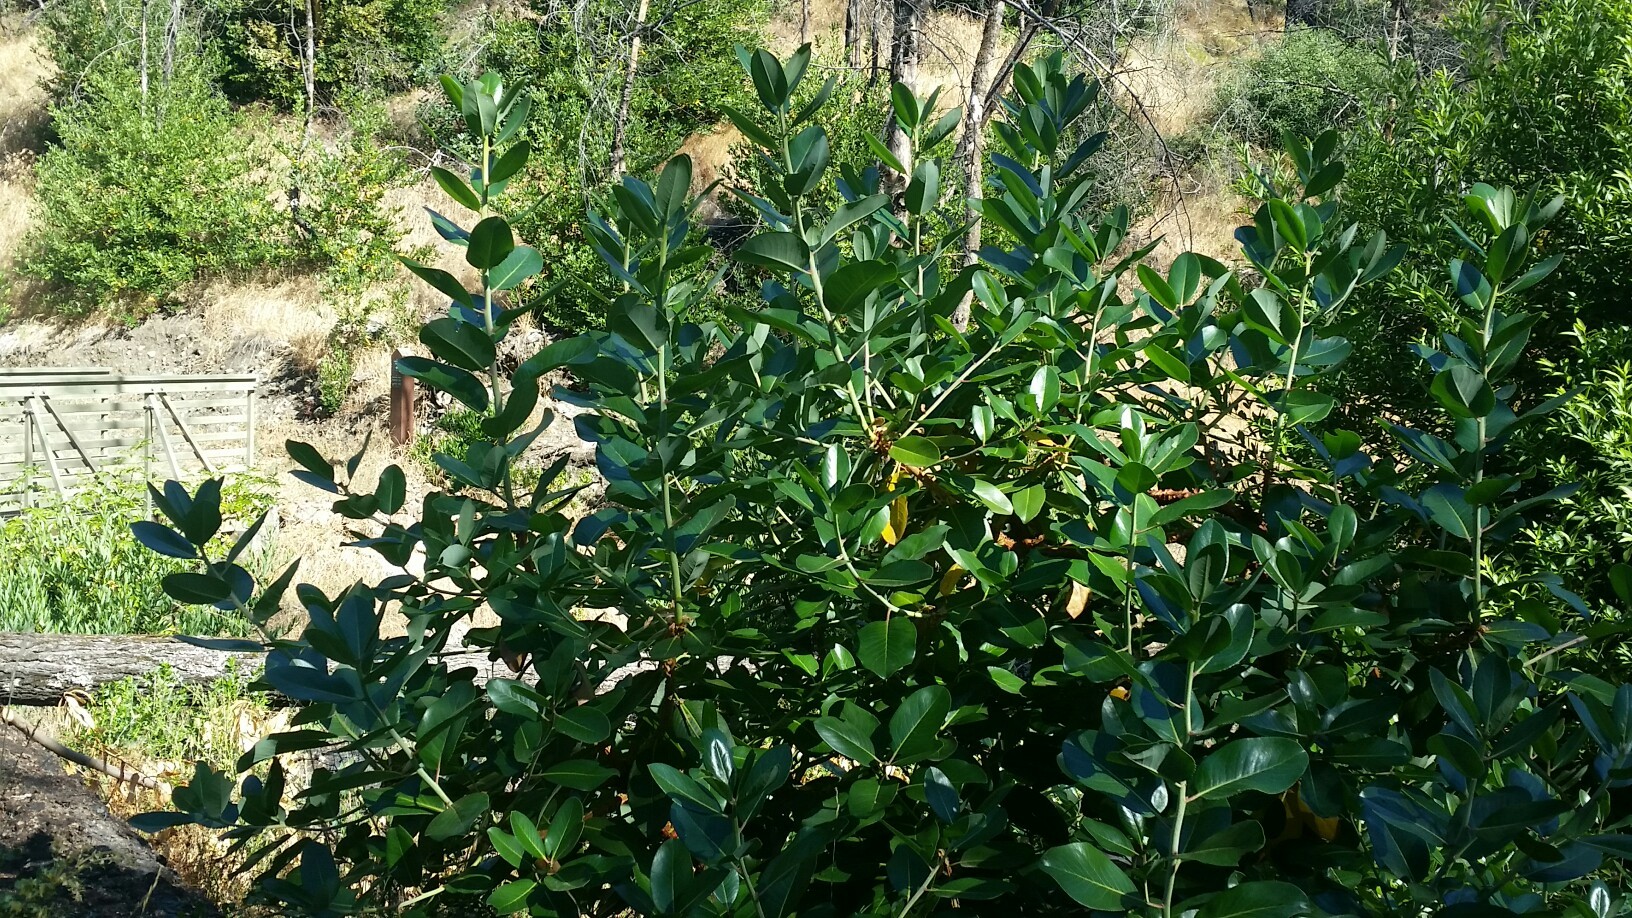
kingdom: Plantae
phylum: Tracheophyta
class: Magnoliopsida
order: Ericales
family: Ericaceae
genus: Arbutus
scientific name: Arbutus menziesii
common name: Pacific madrone
